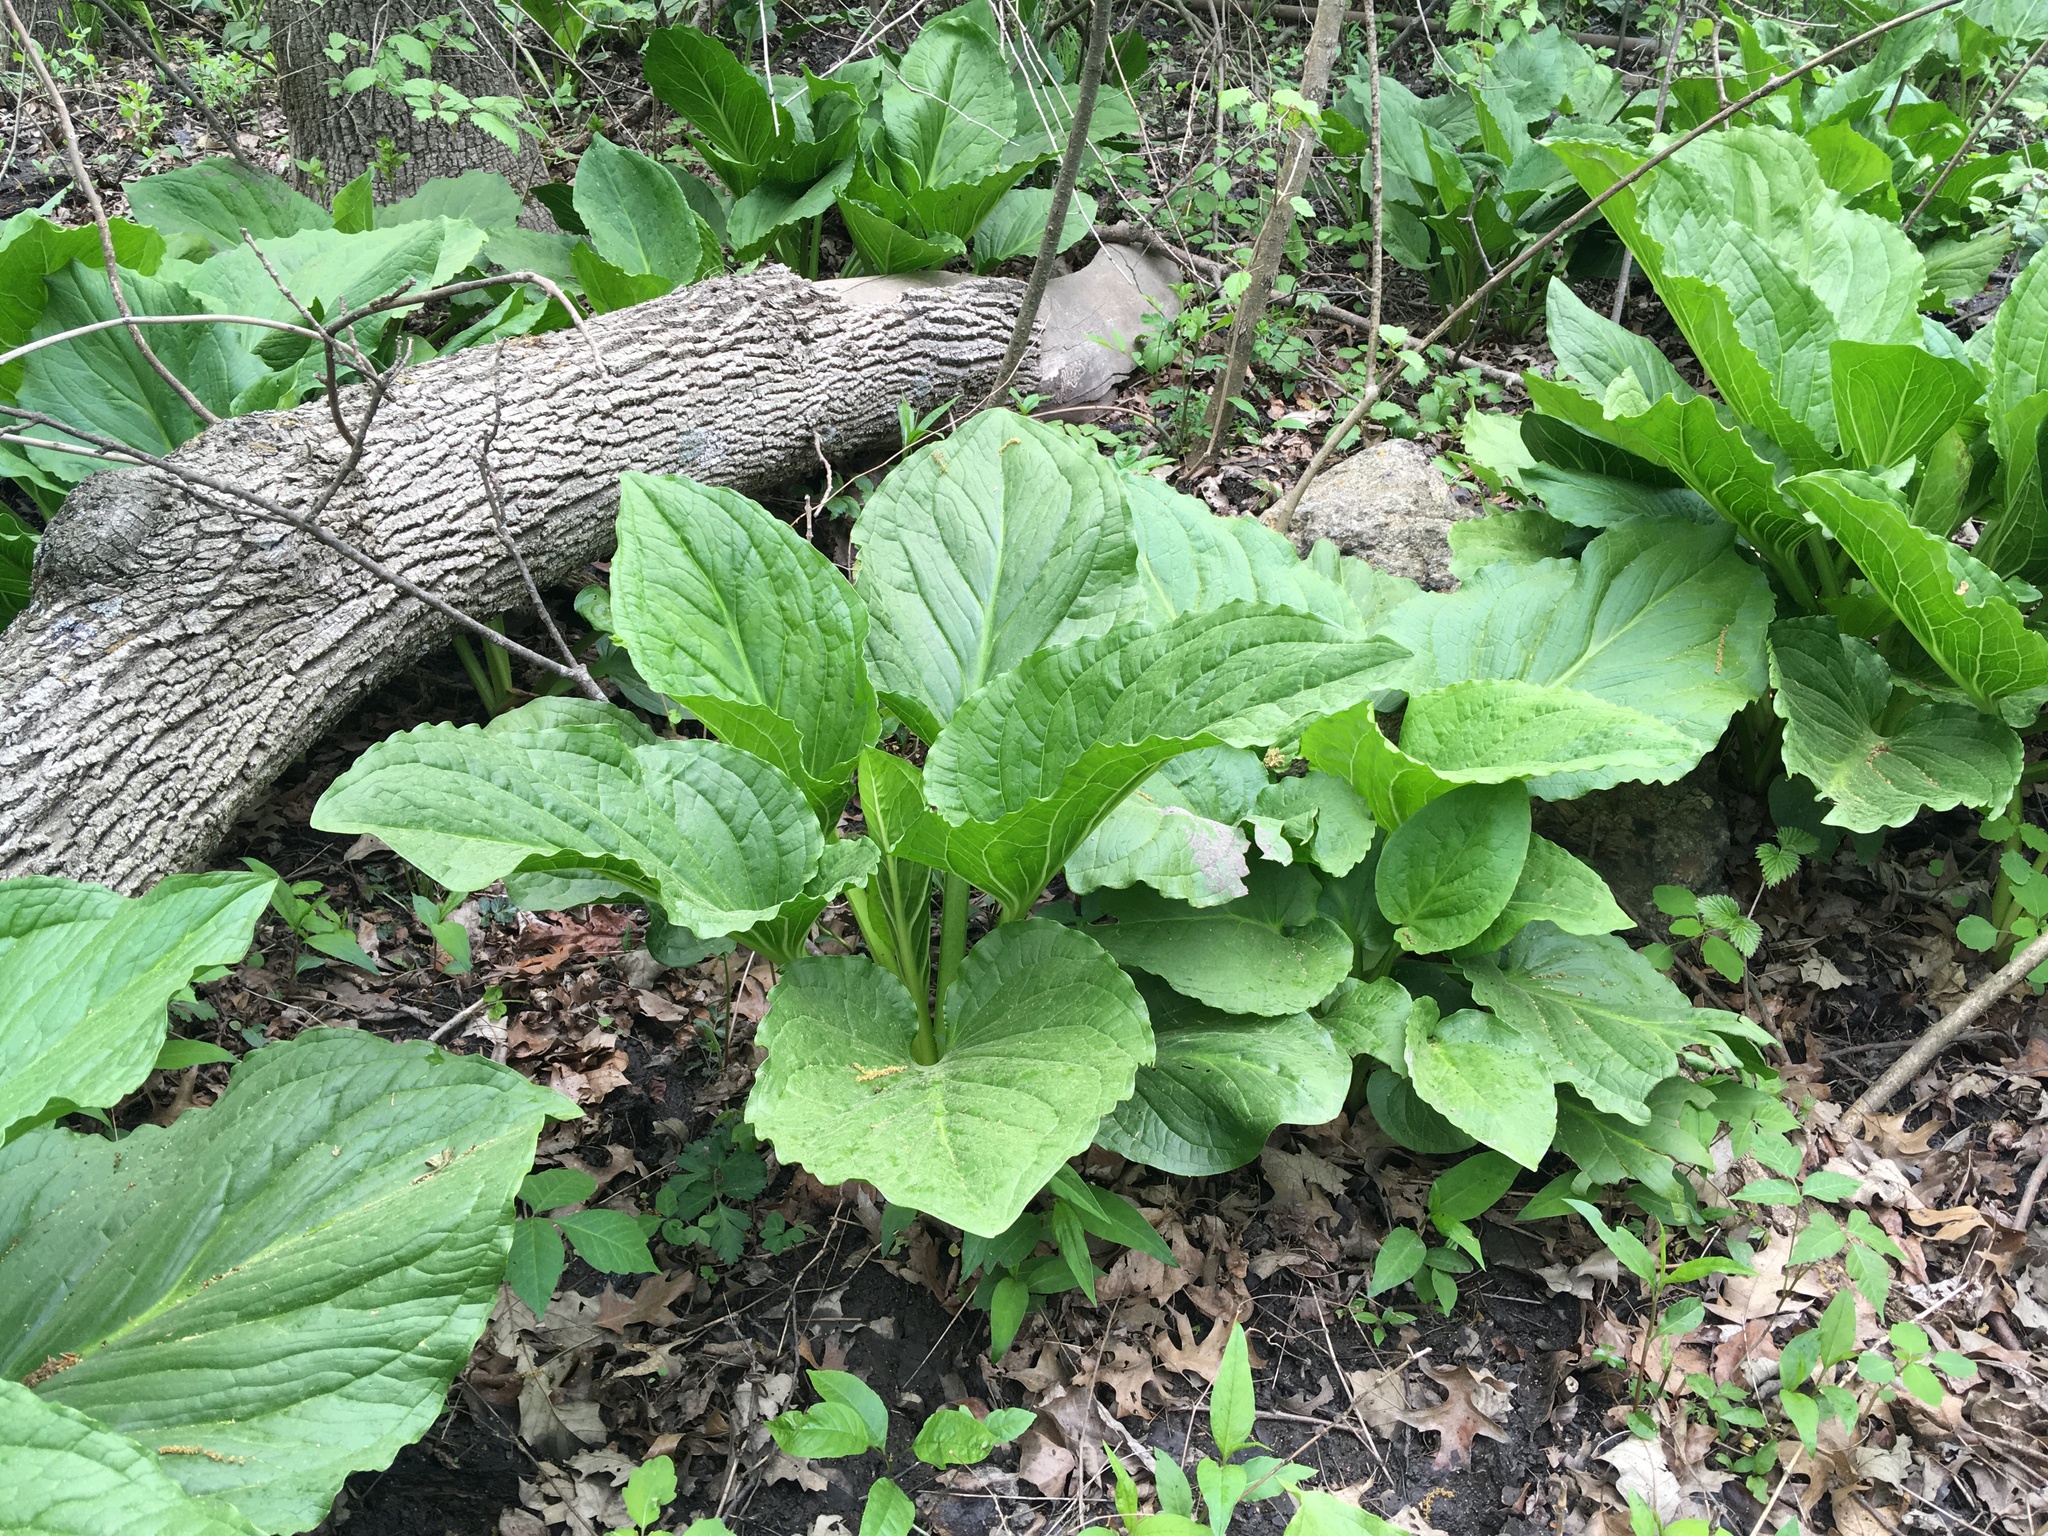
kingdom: Plantae
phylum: Tracheophyta
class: Liliopsida
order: Alismatales
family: Araceae
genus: Symplocarpus
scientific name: Symplocarpus foetidus
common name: Eastern skunk cabbage
